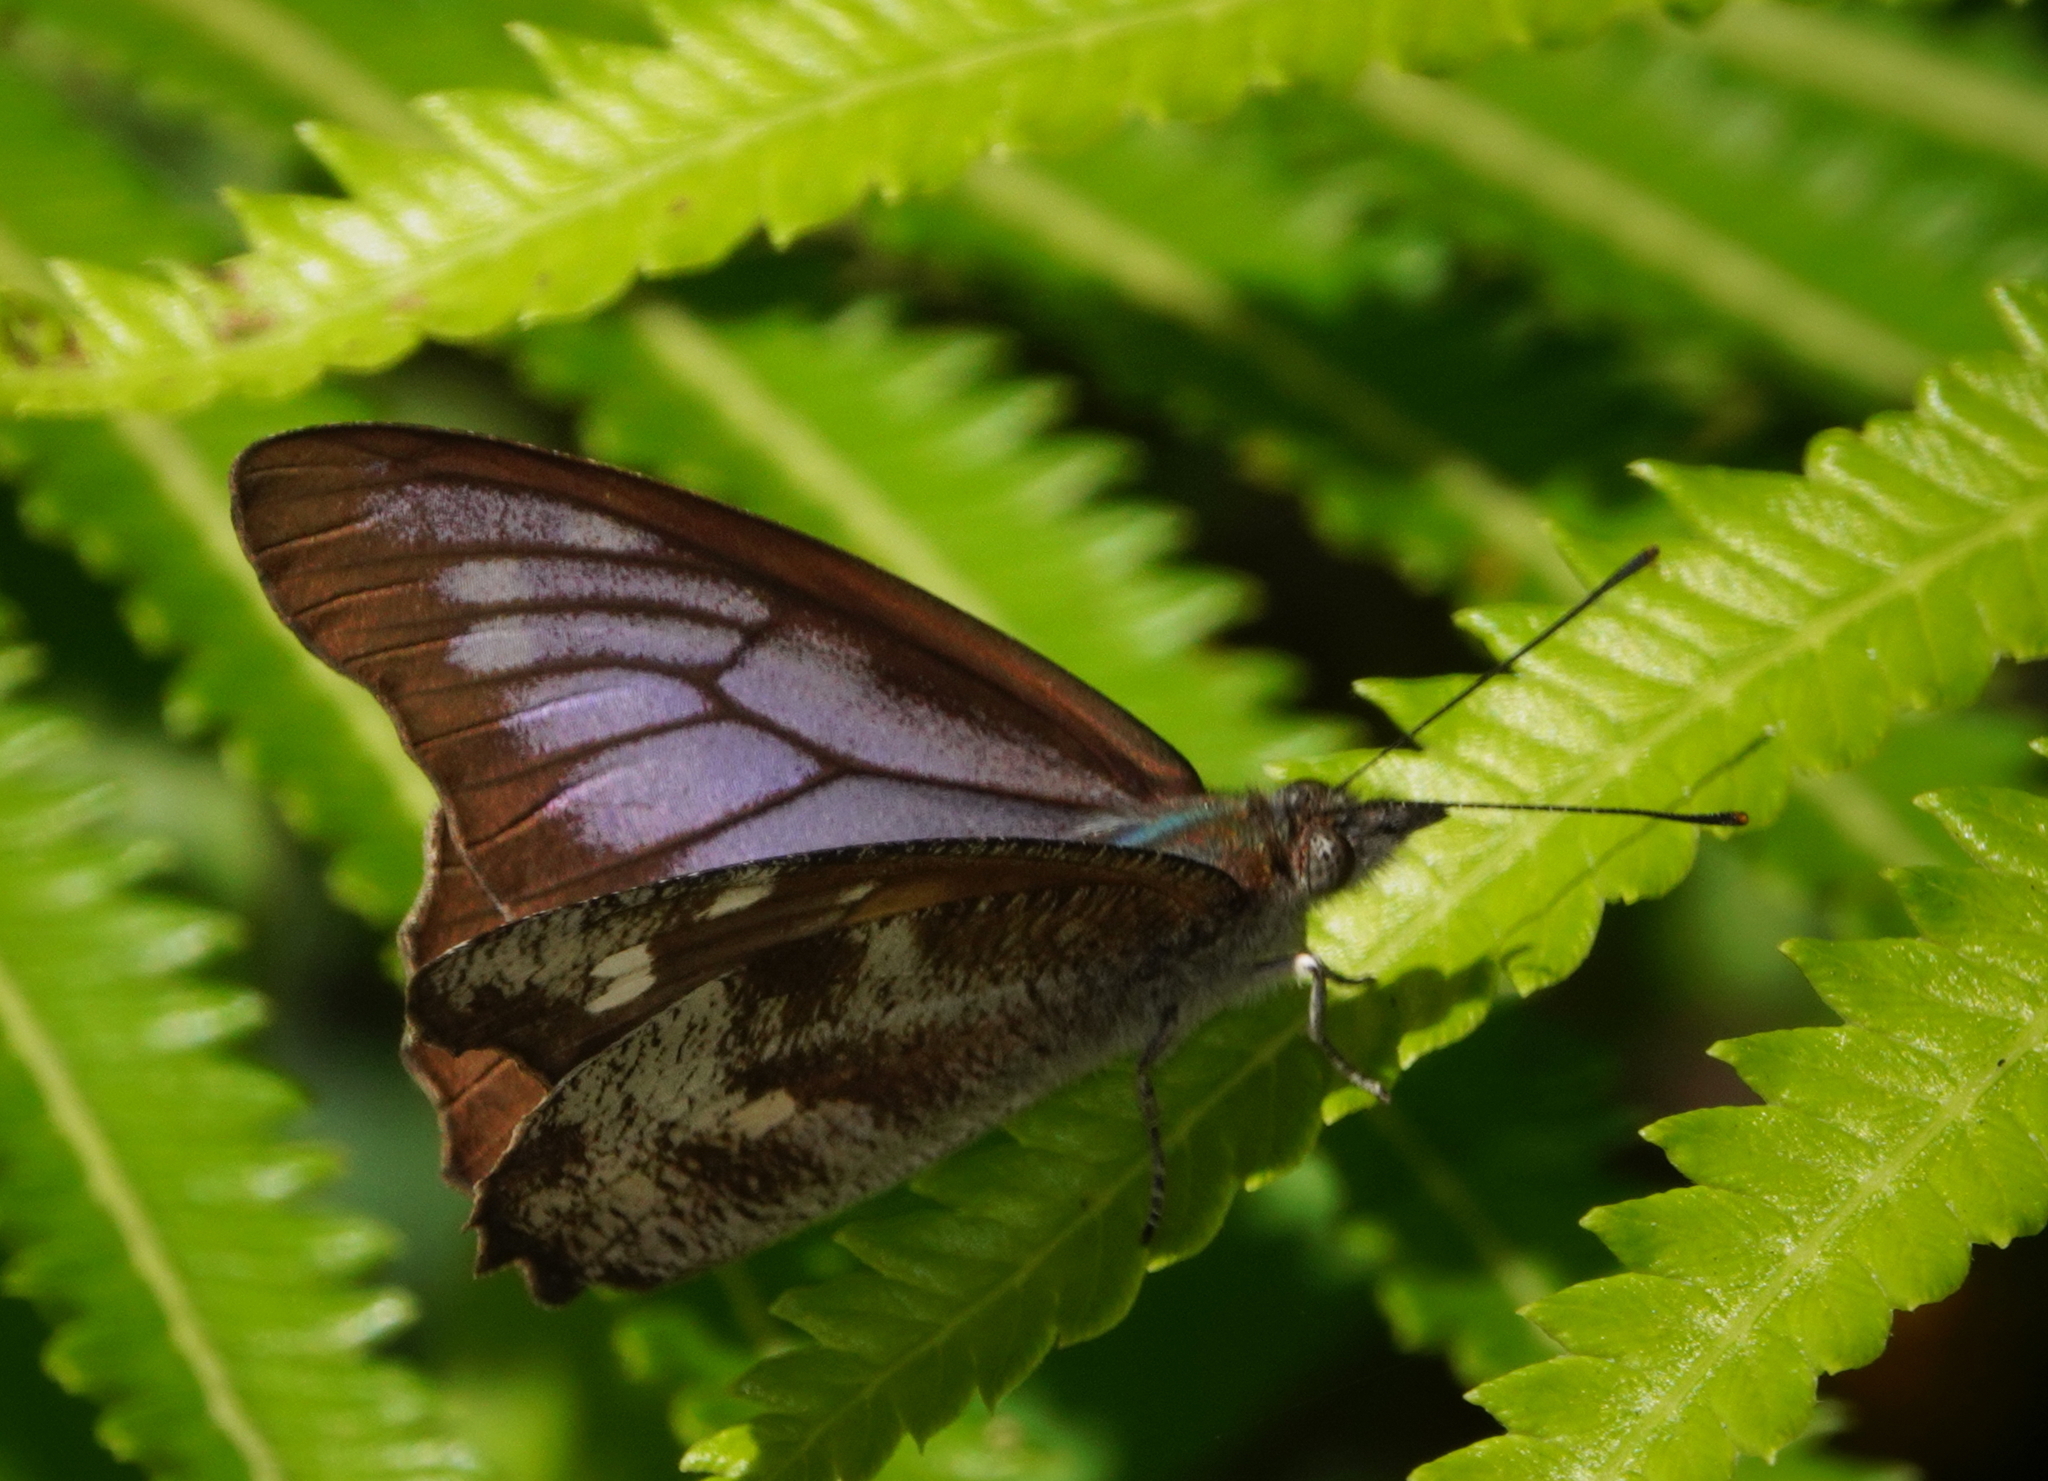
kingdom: Animalia
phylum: Arthropoda
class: Insecta
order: Lepidoptera
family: Nymphalidae
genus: Libythea
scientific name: Libythea geoffroy
